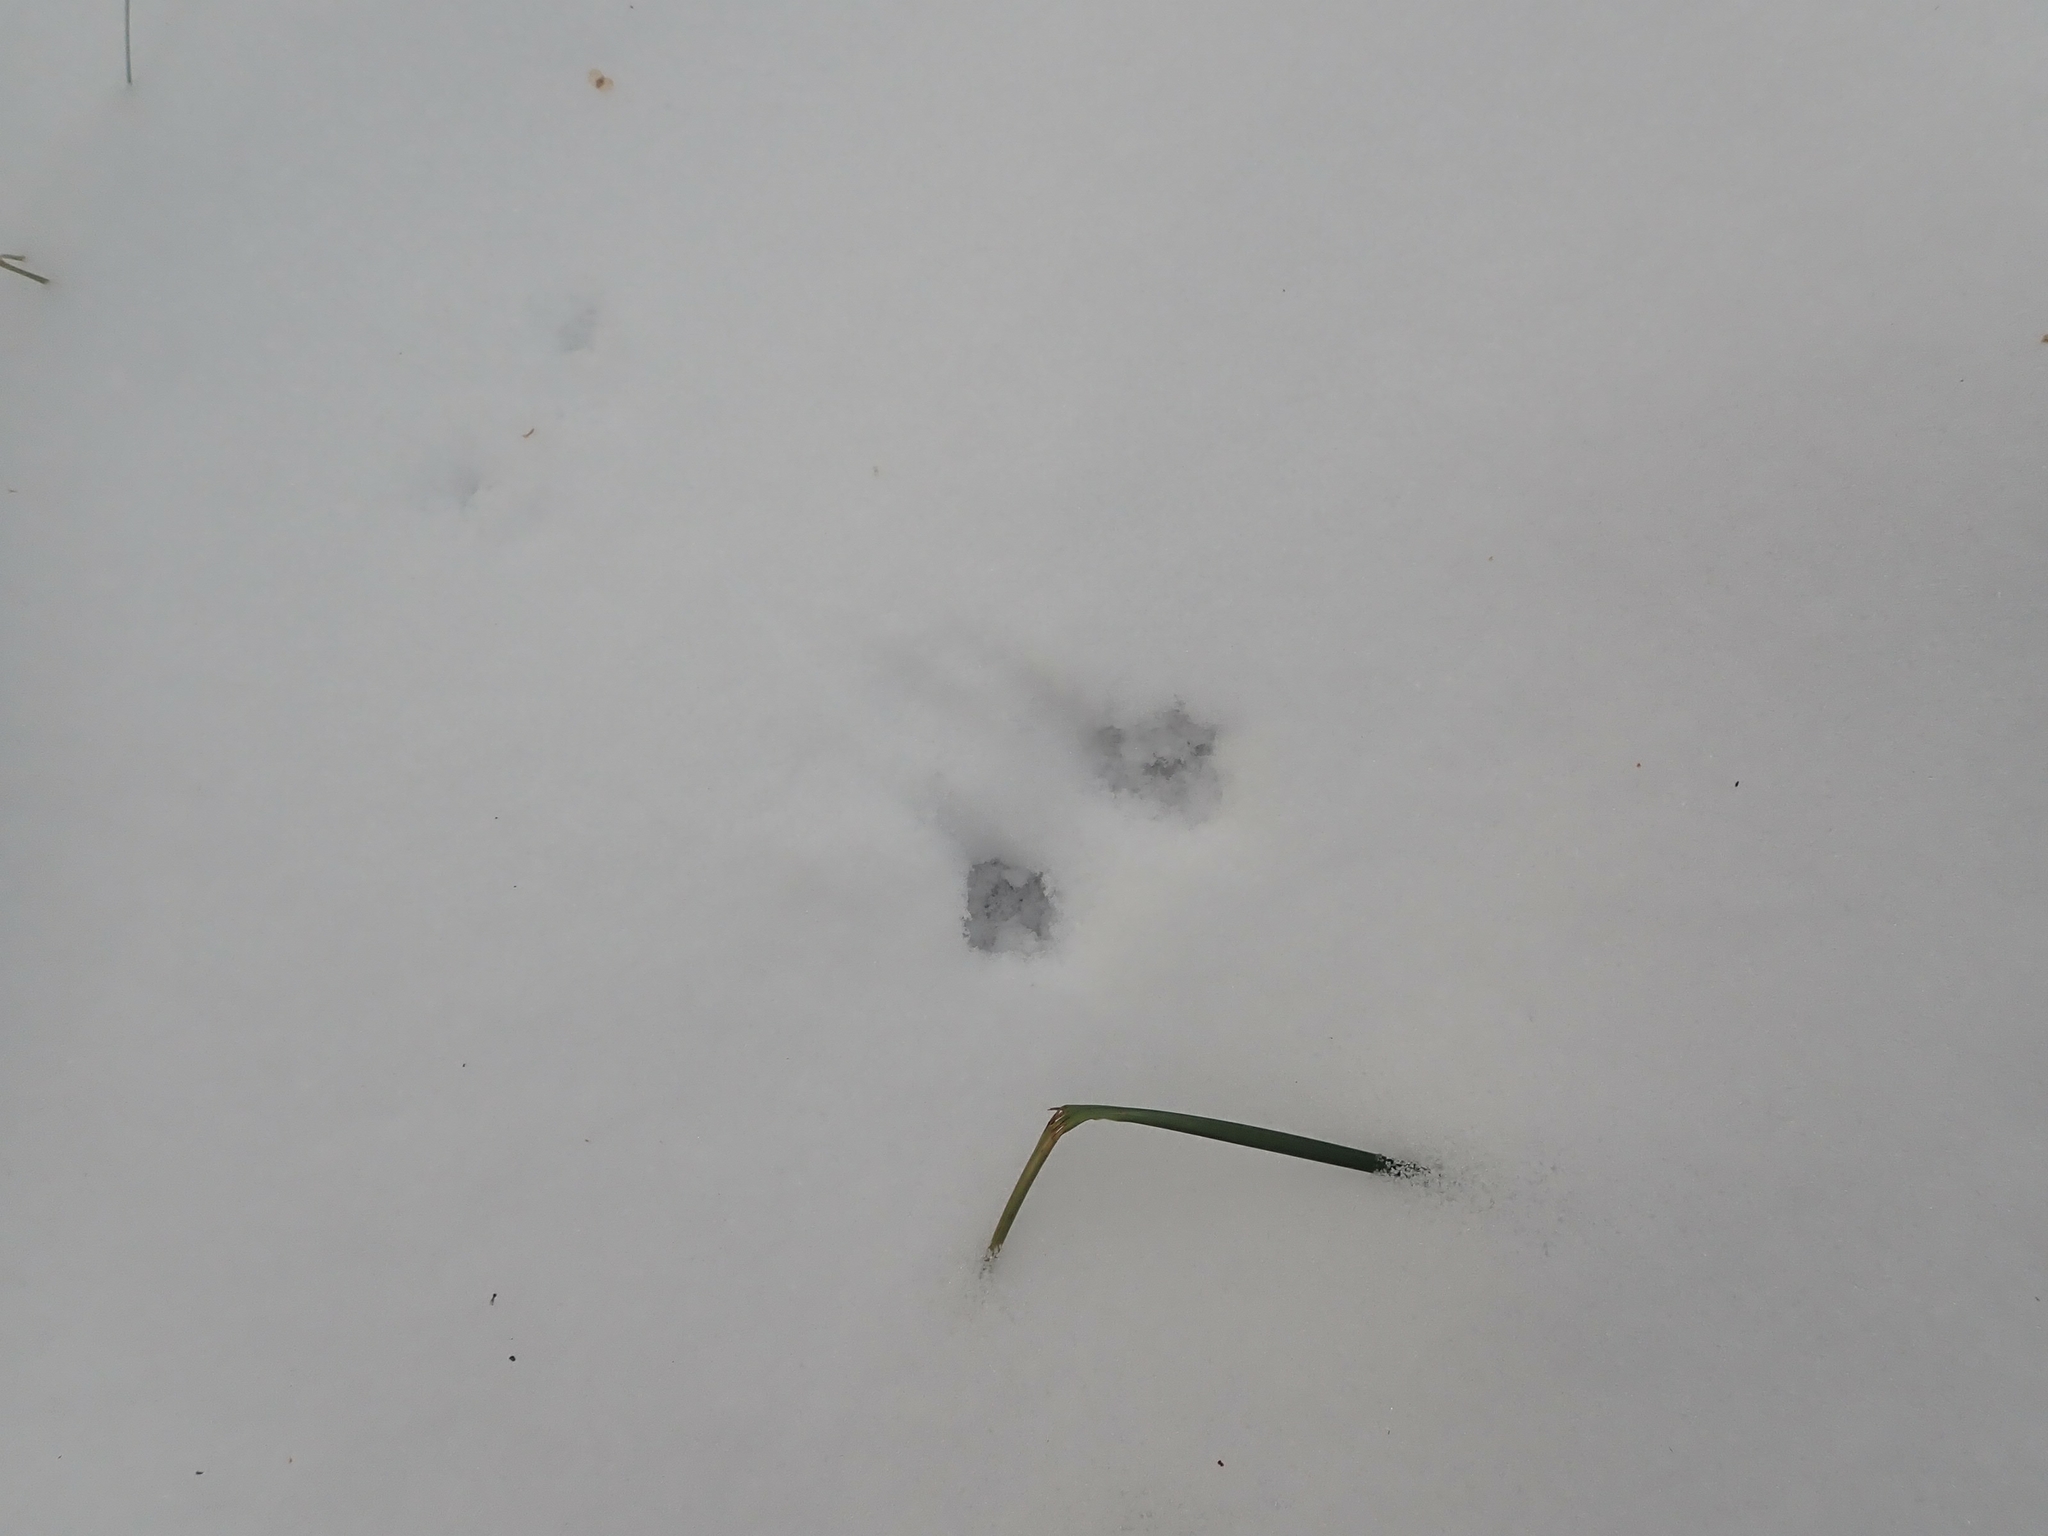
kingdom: Animalia
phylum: Chordata
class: Mammalia
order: Rodentia
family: Cricetidae
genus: Peromyscus
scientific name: Peromyscus maniculatus
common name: Deer mouse
